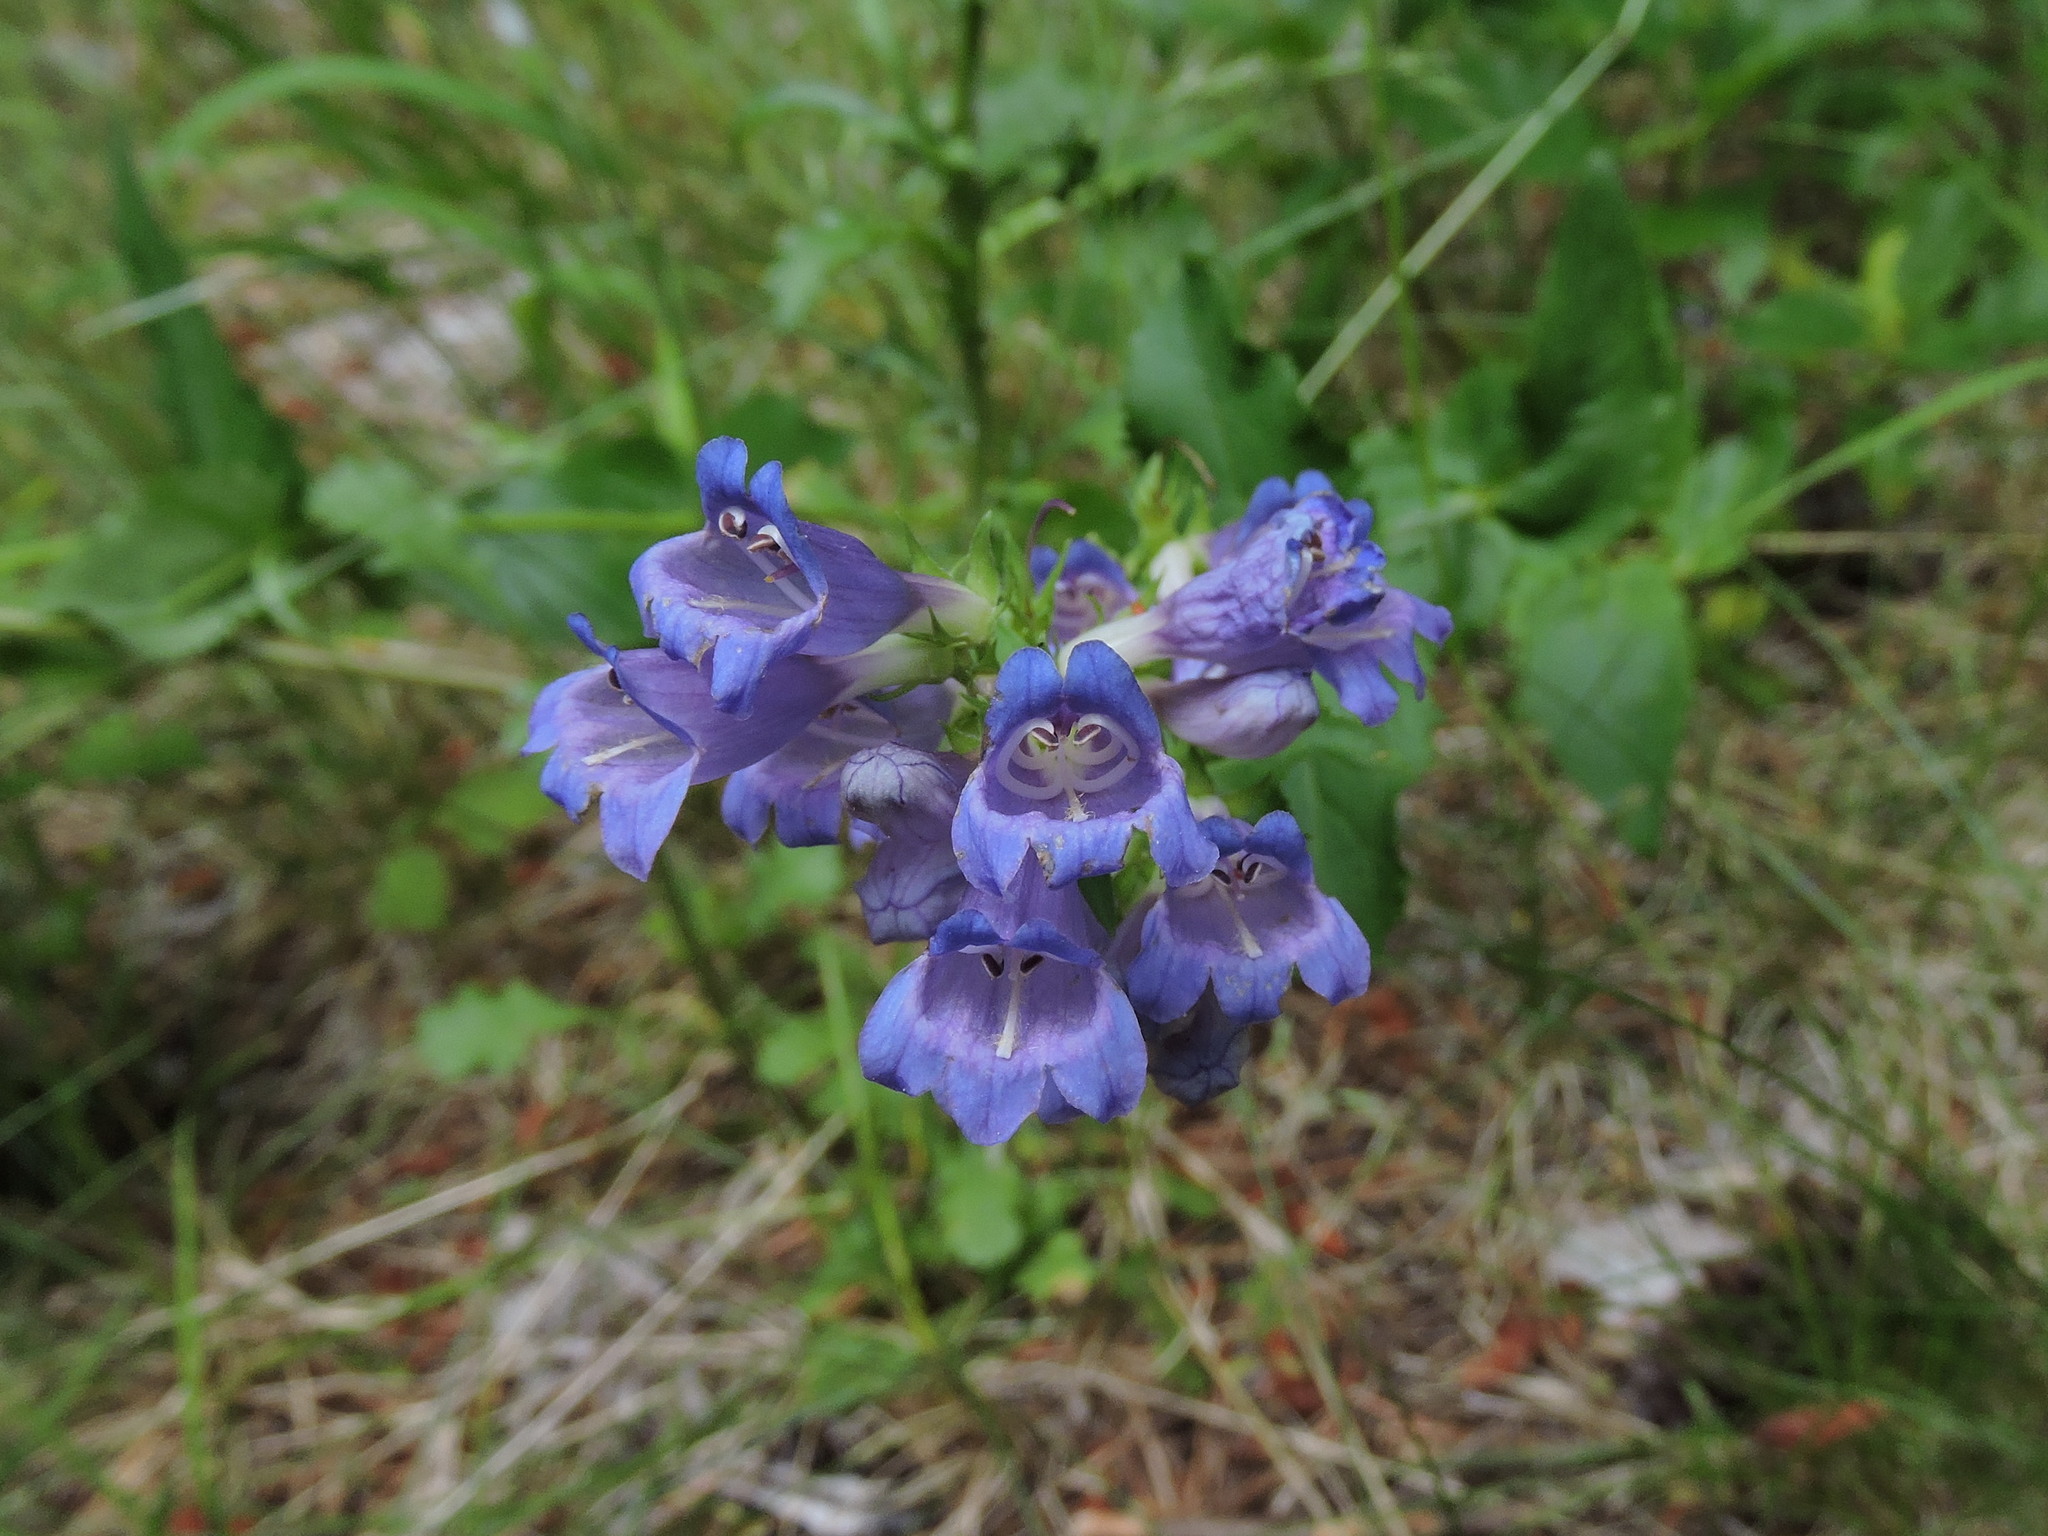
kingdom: Plantae
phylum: Tracheophyta
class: Magnoliopsida
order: Lamiales
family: Plantaginaceae
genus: Penstemon
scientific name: Penstemon serrulatus
